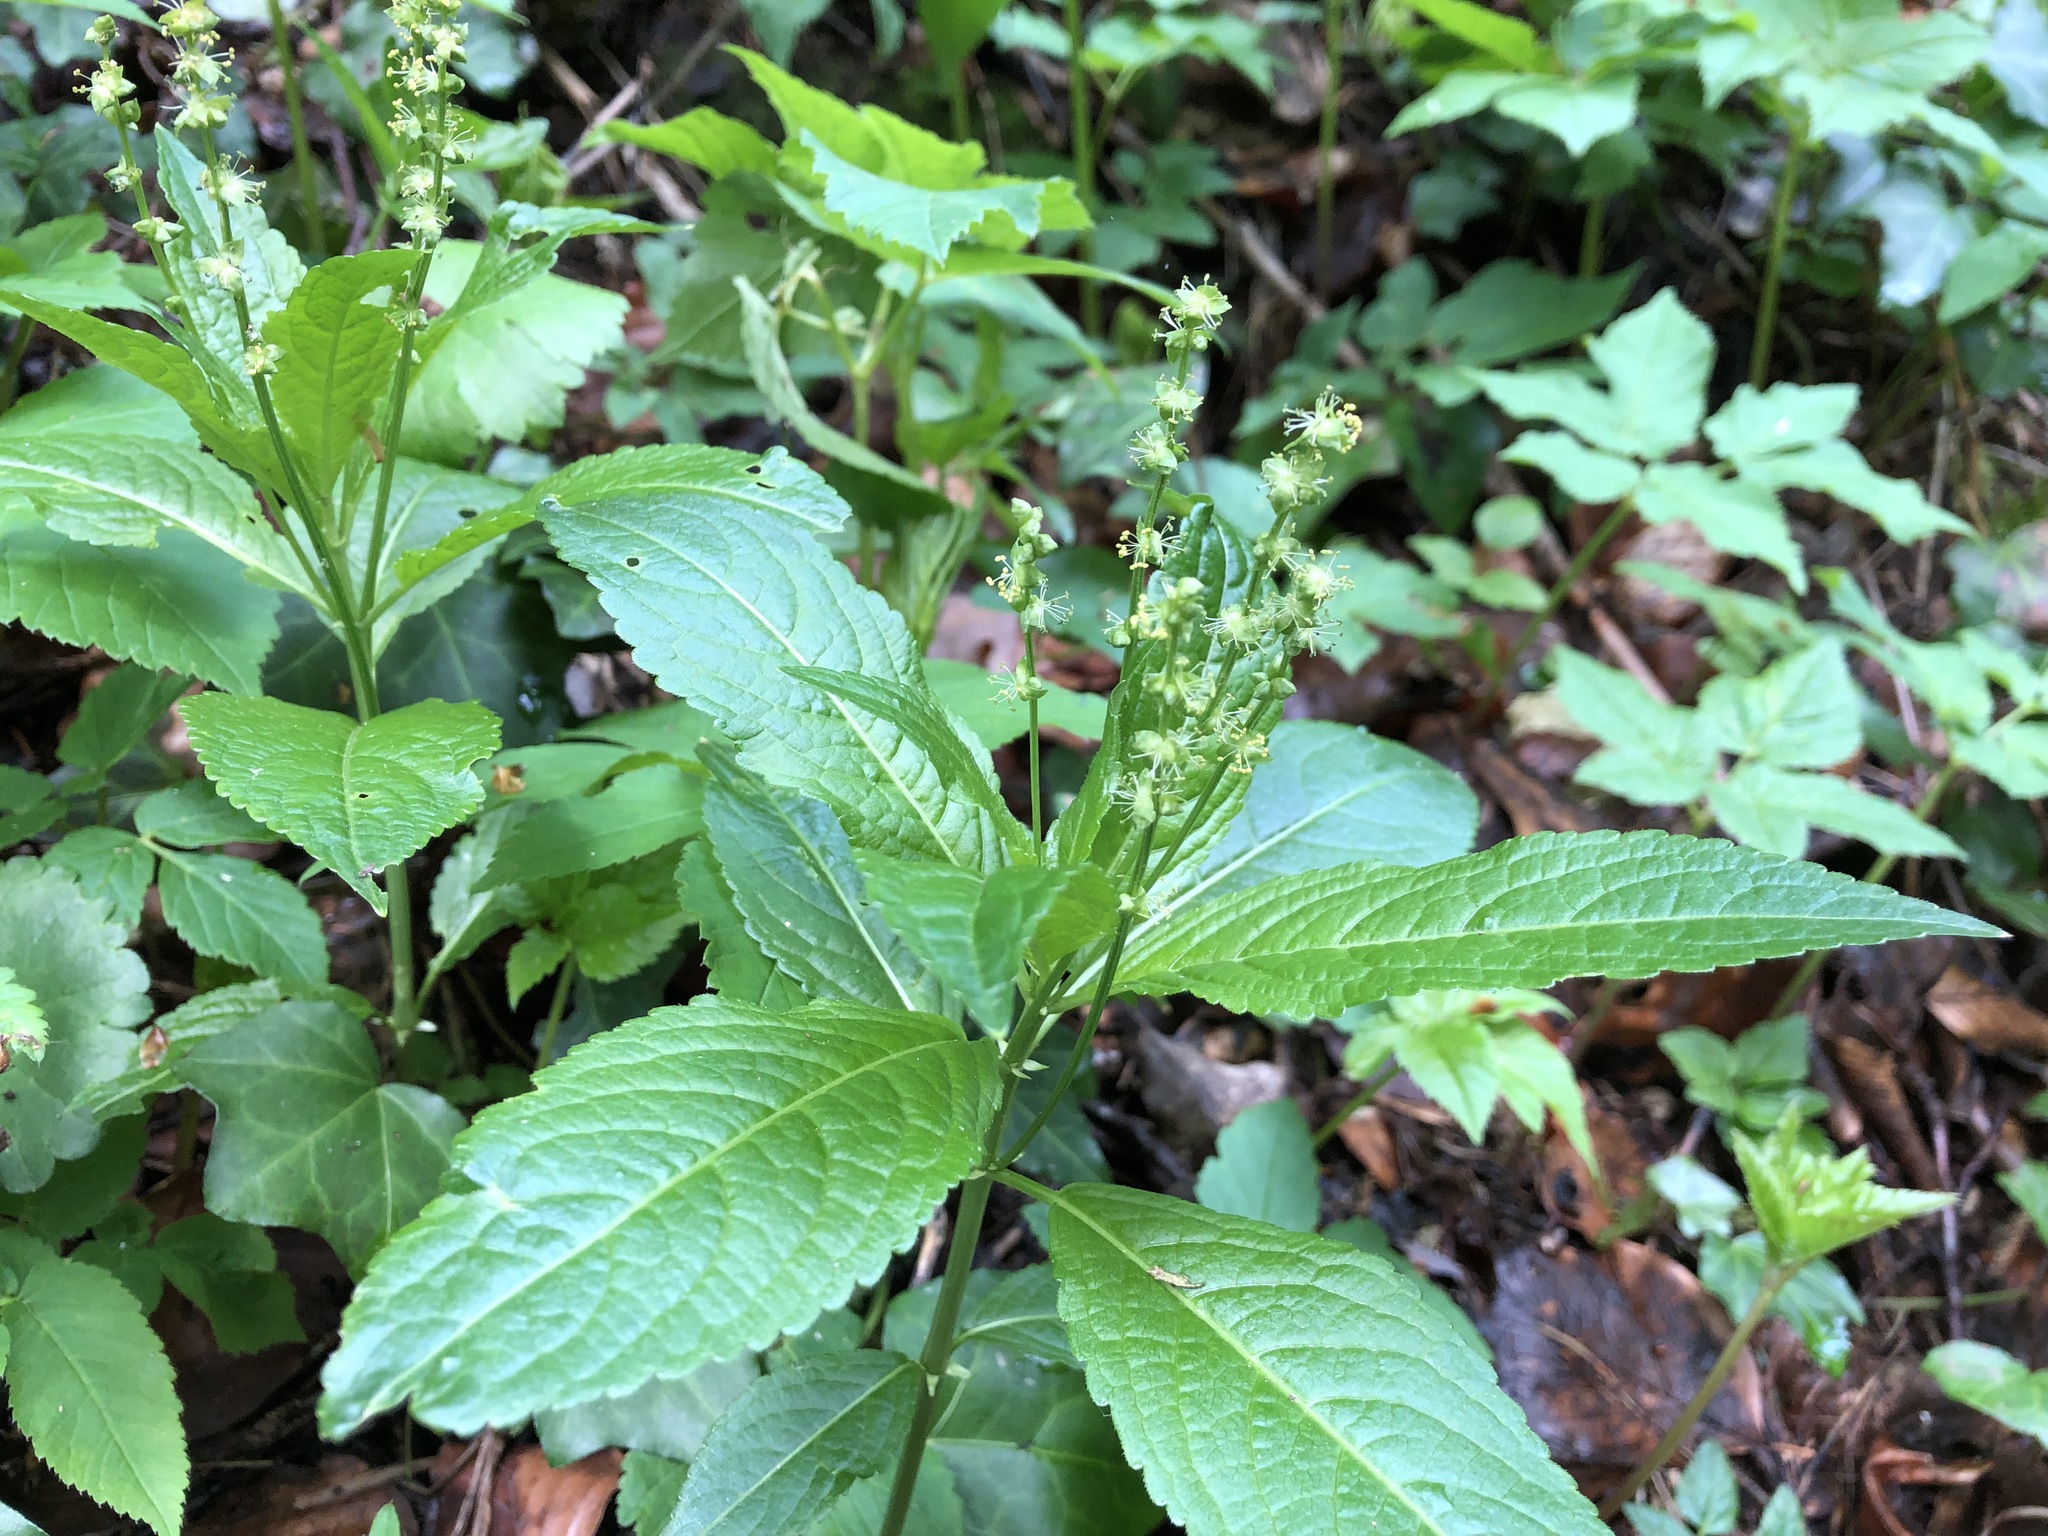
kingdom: Plantae
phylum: Tracheophyta
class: Magnoliopsida
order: Malpighiales
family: Euphorbiaceae
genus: Mercurialis
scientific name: Mercurialis perennis
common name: Dog mercury
